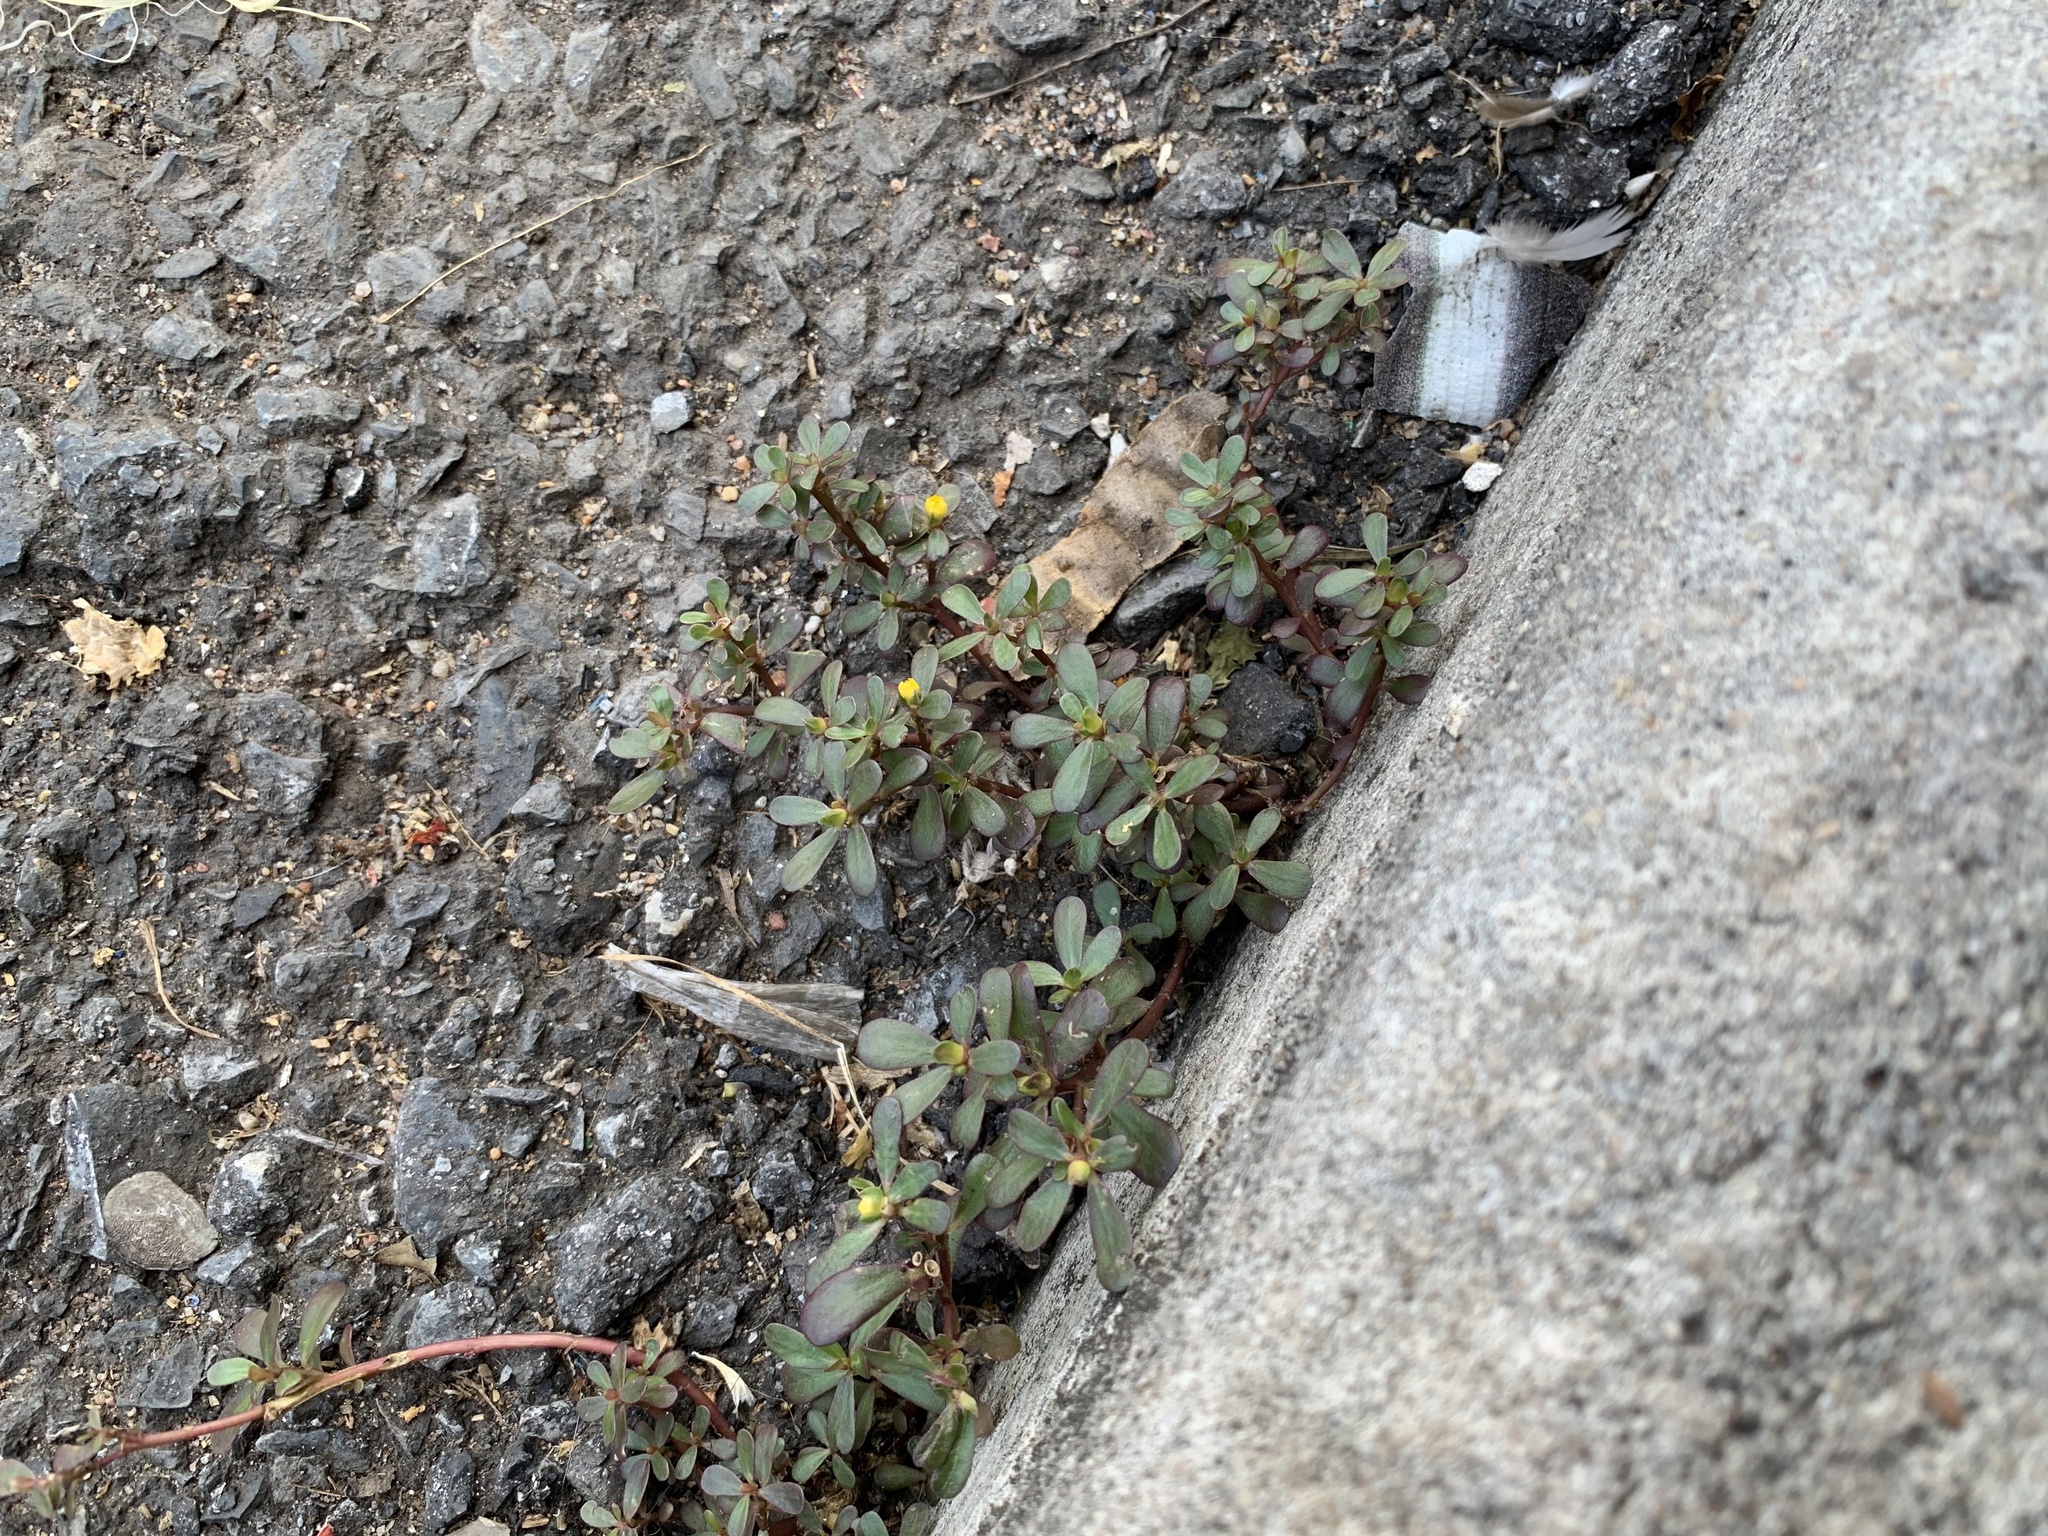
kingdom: Plantae
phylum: Tracheophyta
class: Magnoliopsida
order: Caryophyllales
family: Portulacaceae
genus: Portulaca
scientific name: Portulaca oleracea
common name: Common purslane
